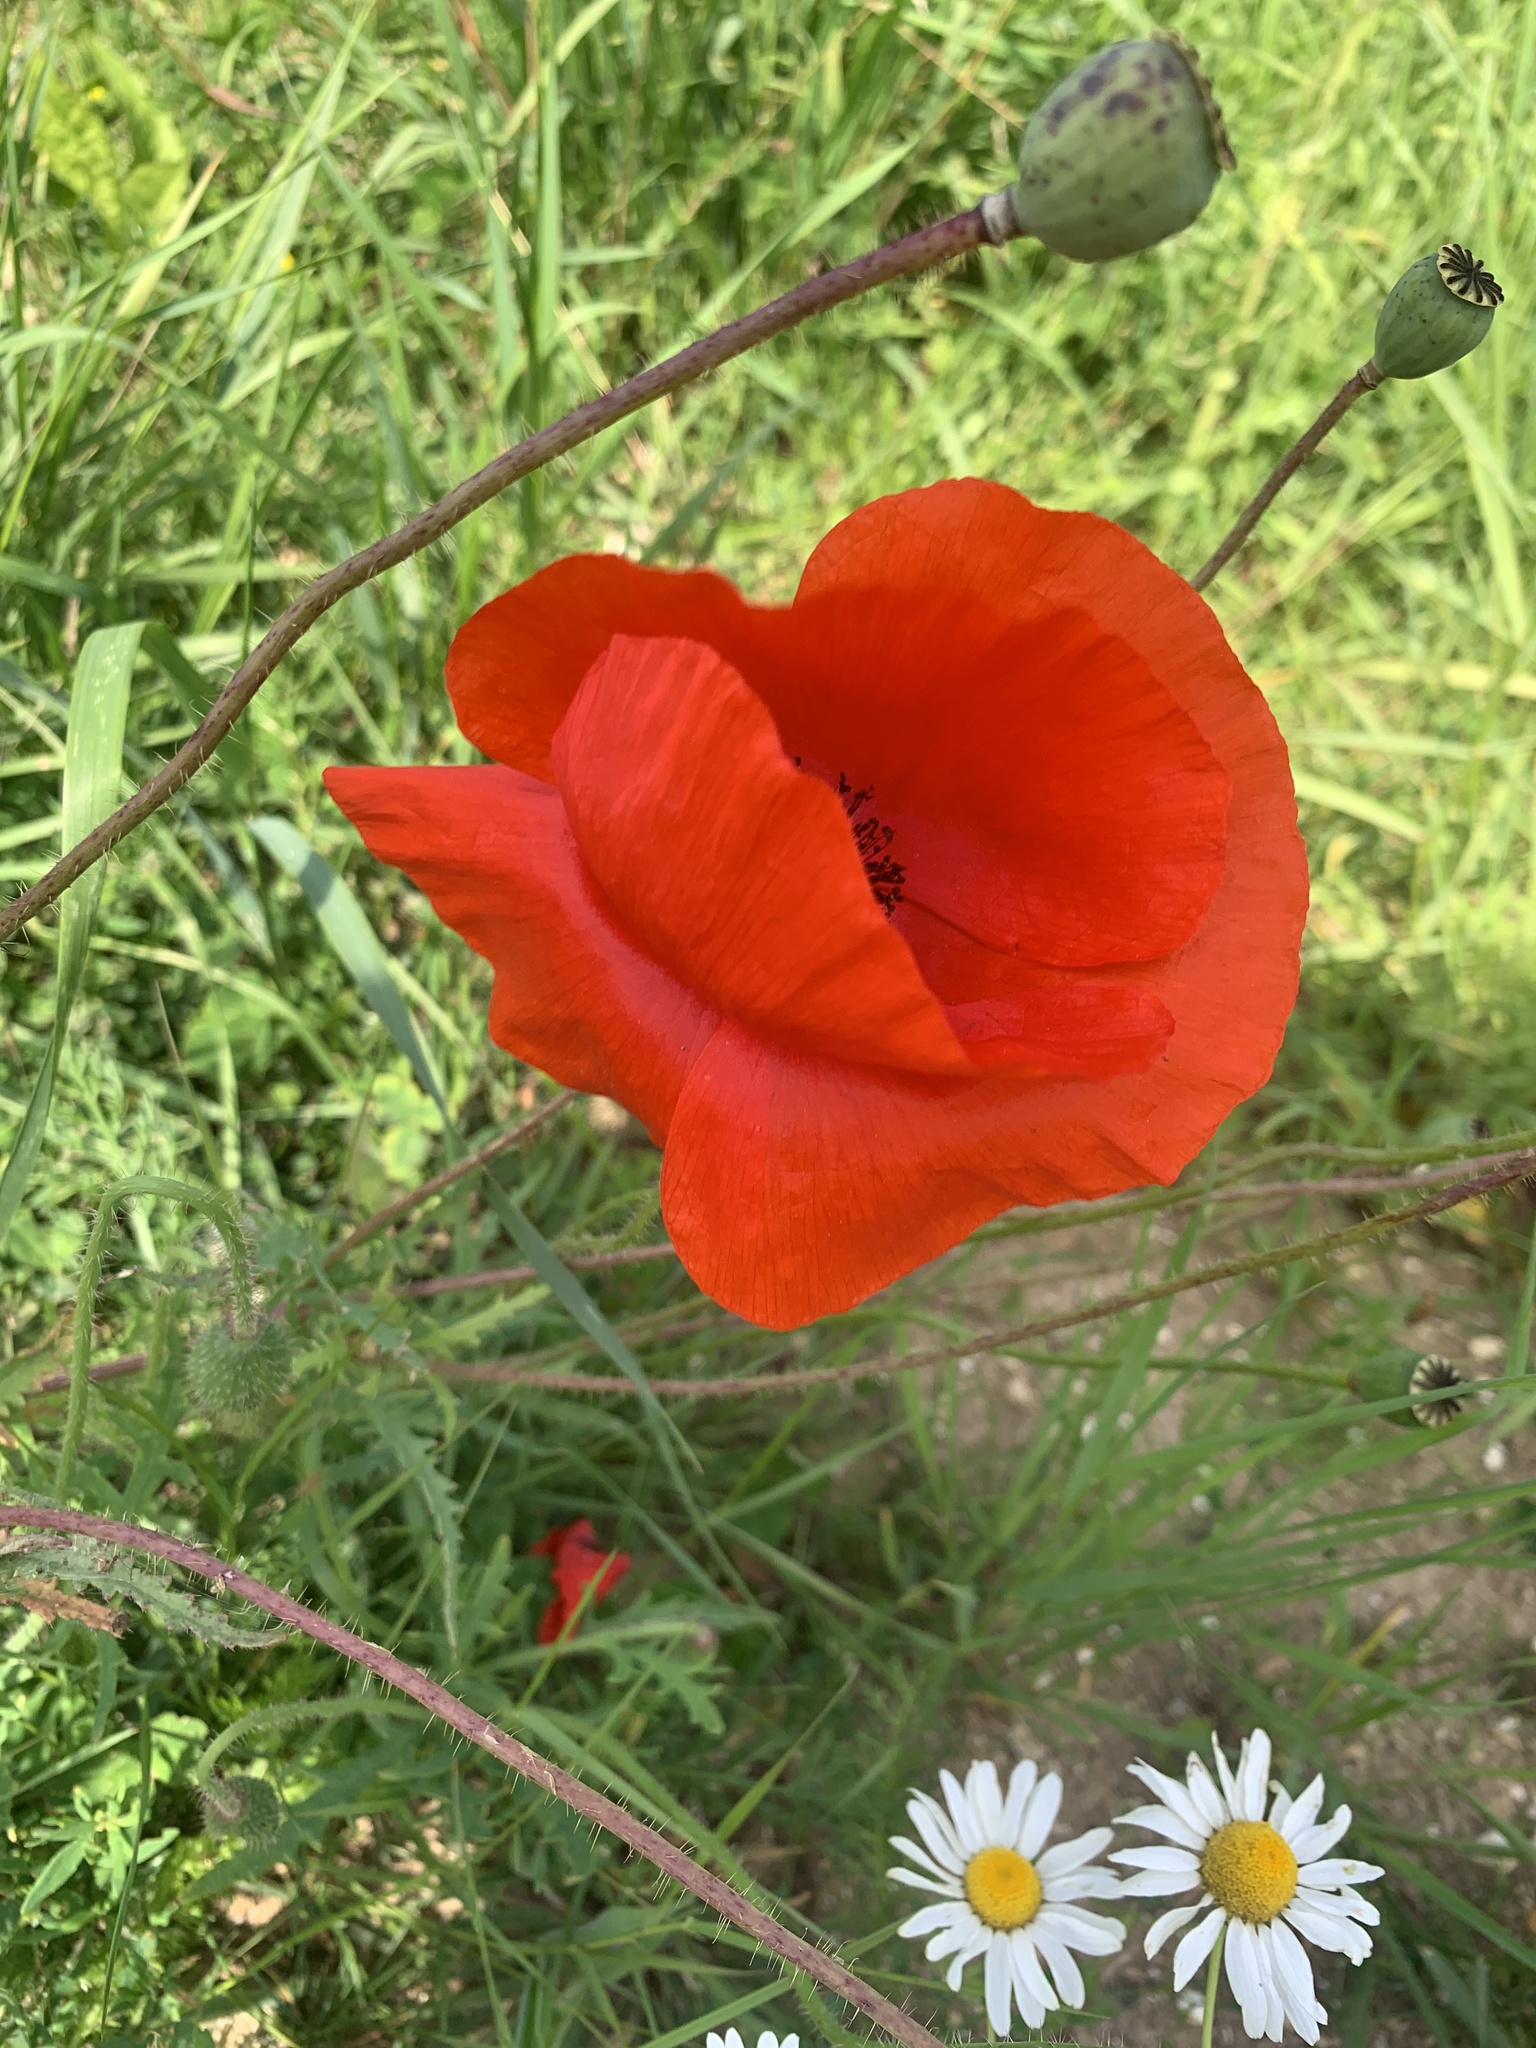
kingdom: Plantae
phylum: Tracheophyta
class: Magnoliopsida
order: Ranunculales
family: Papaveraceae
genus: Papaver
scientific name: Papaver rhoeas
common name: Corn poppy
